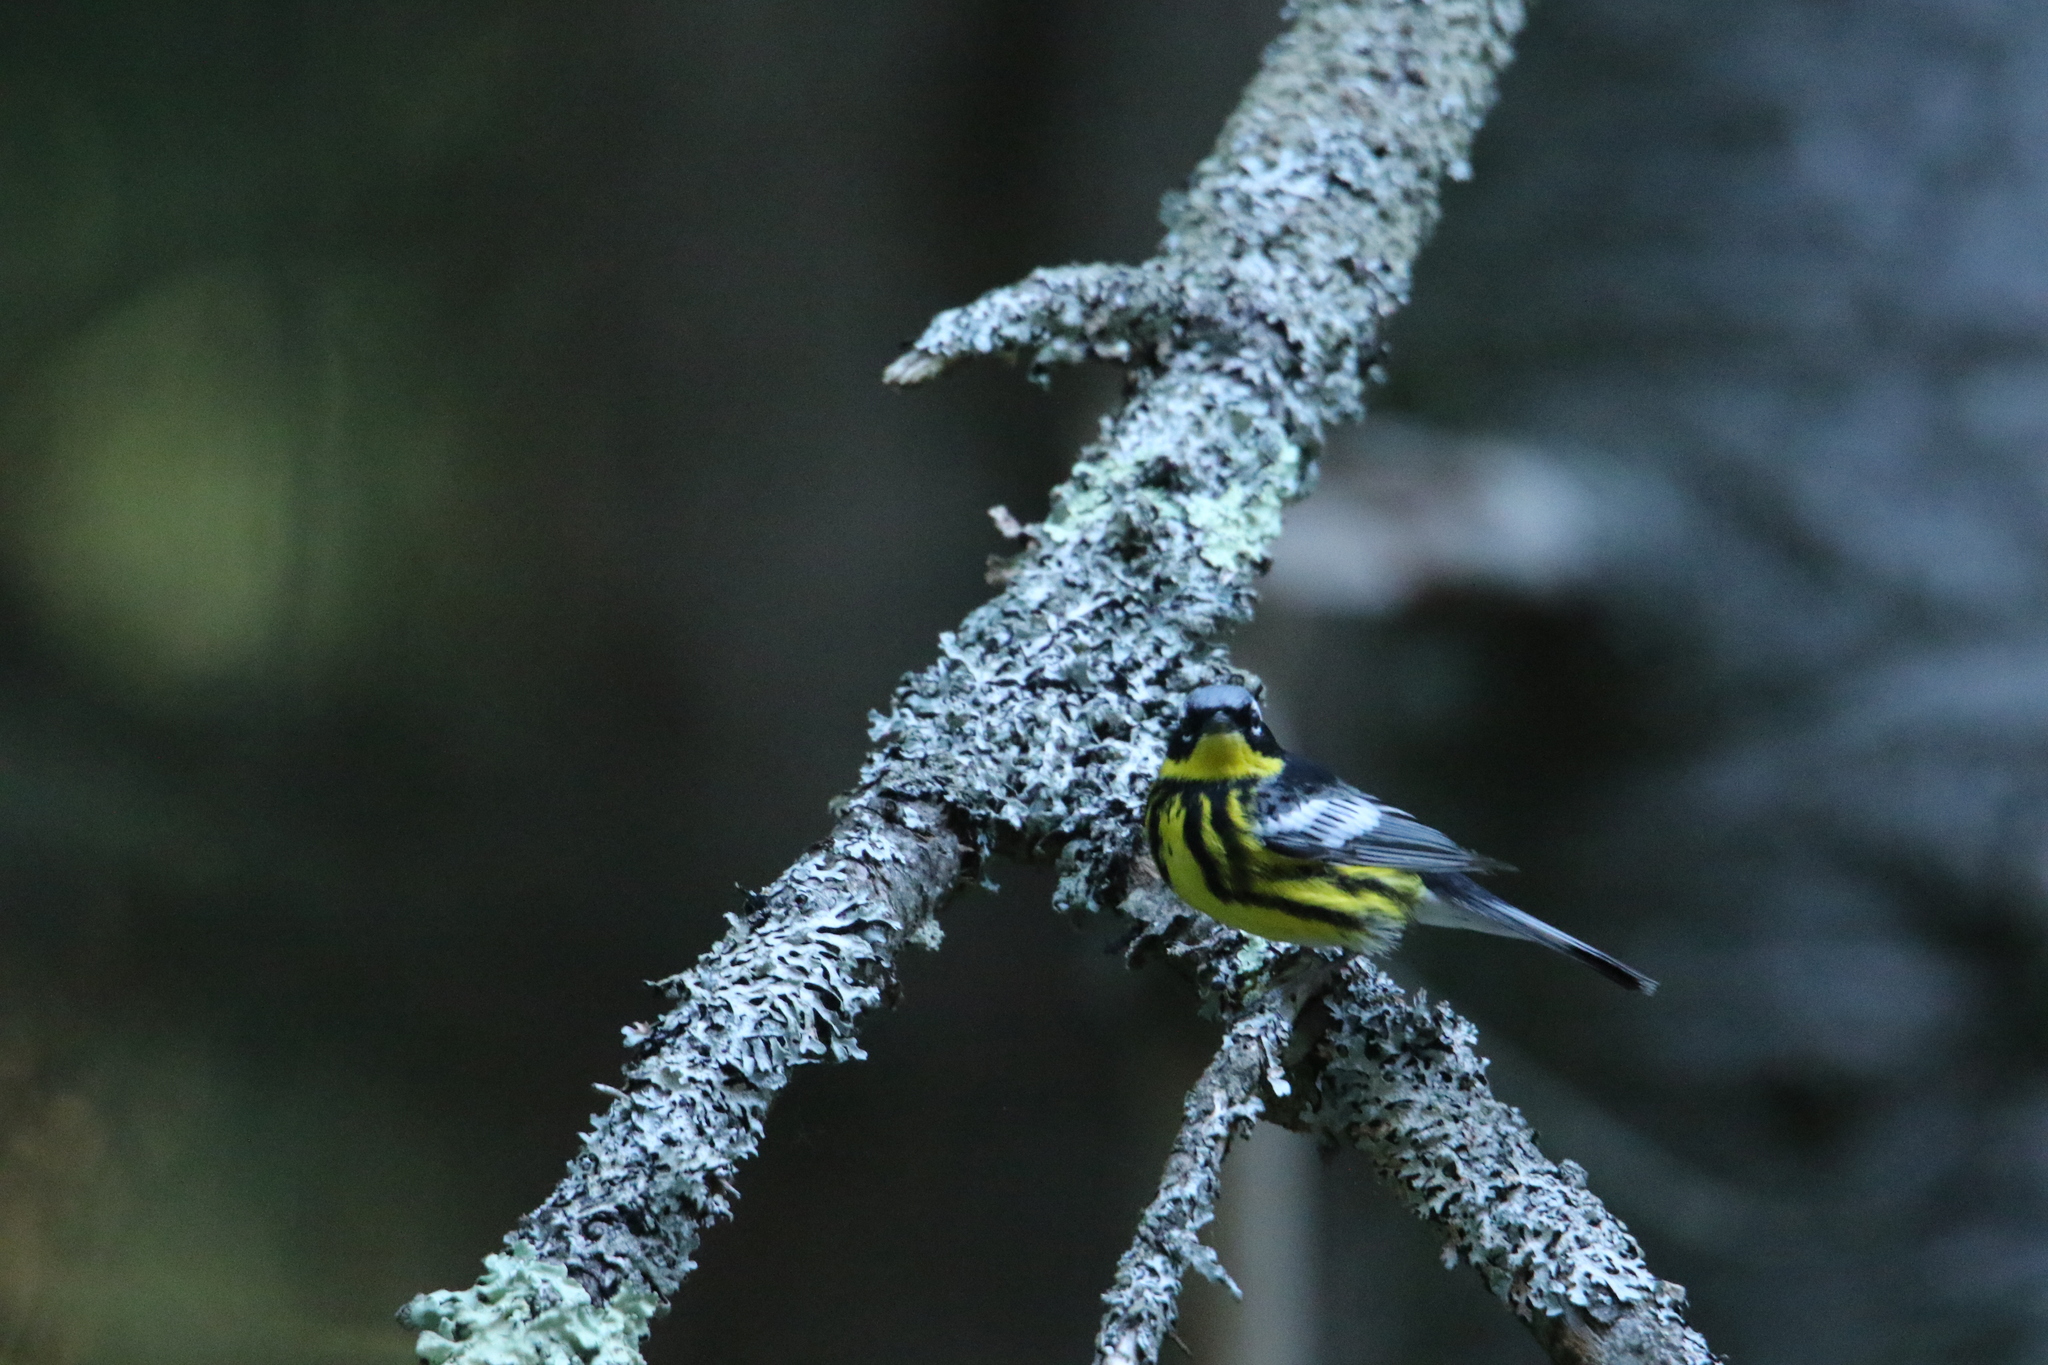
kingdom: Animalia
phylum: Chordata
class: Aves
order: Passeriformes
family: Parulidae
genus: Setophaga
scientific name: Setophaga magnolia
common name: Magnolia warbler
